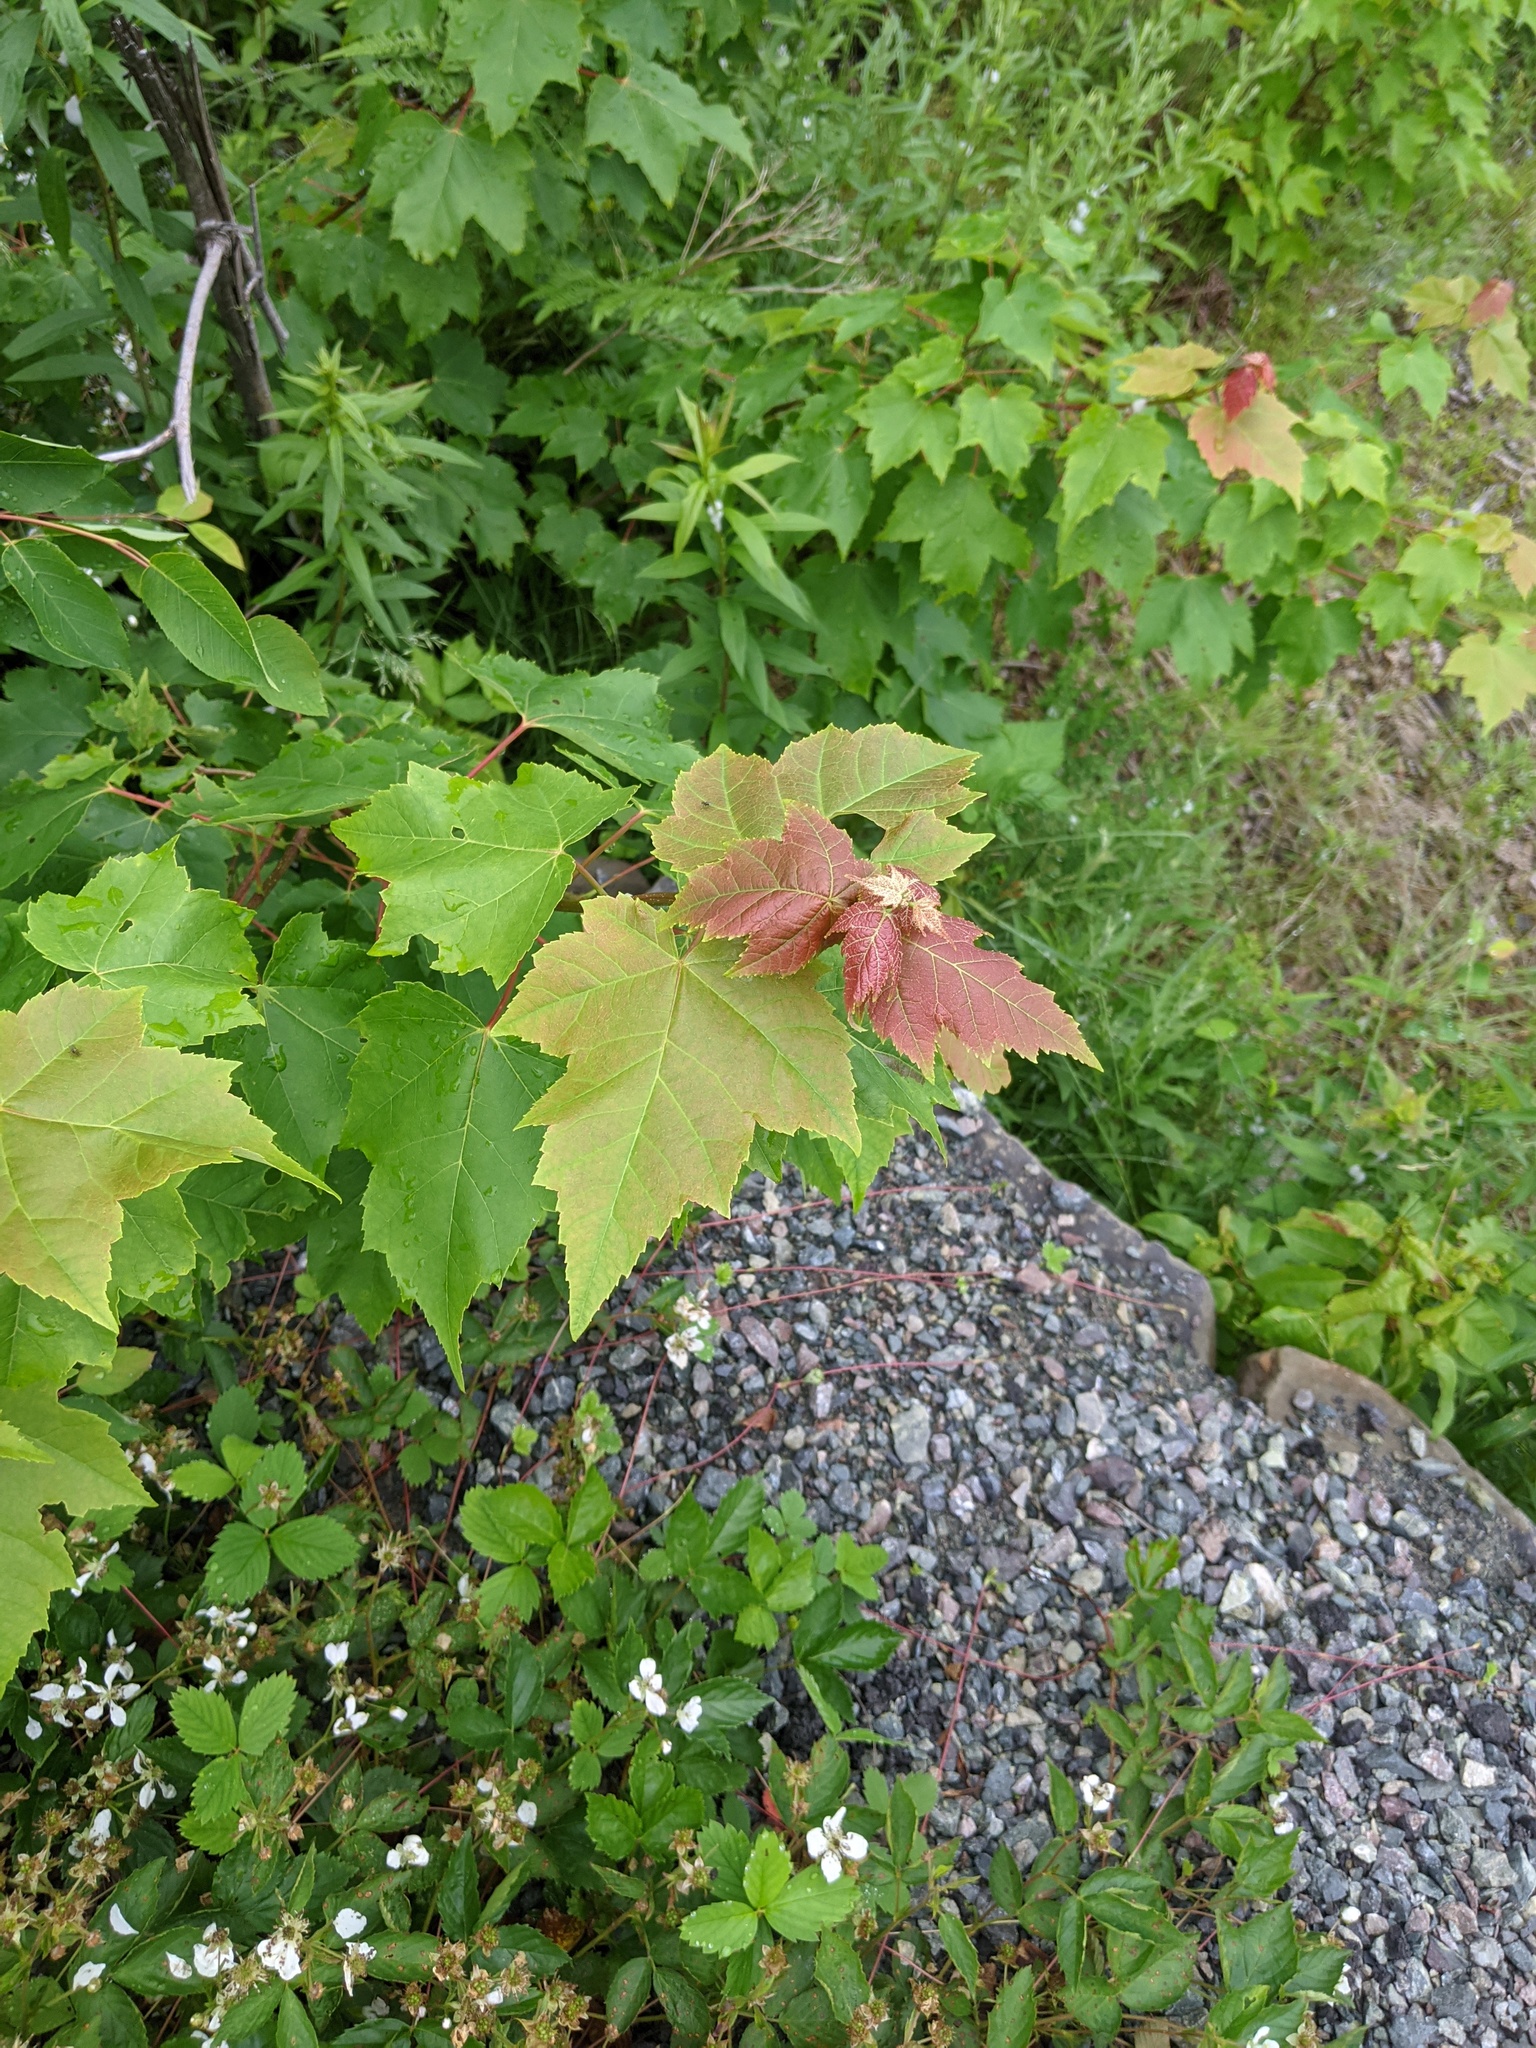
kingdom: Plantae
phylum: Tracheophyta
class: Magnoliopsida
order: Sapindales
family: Sapindaceae
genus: Acer
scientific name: Acer rubrum
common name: Red maple
